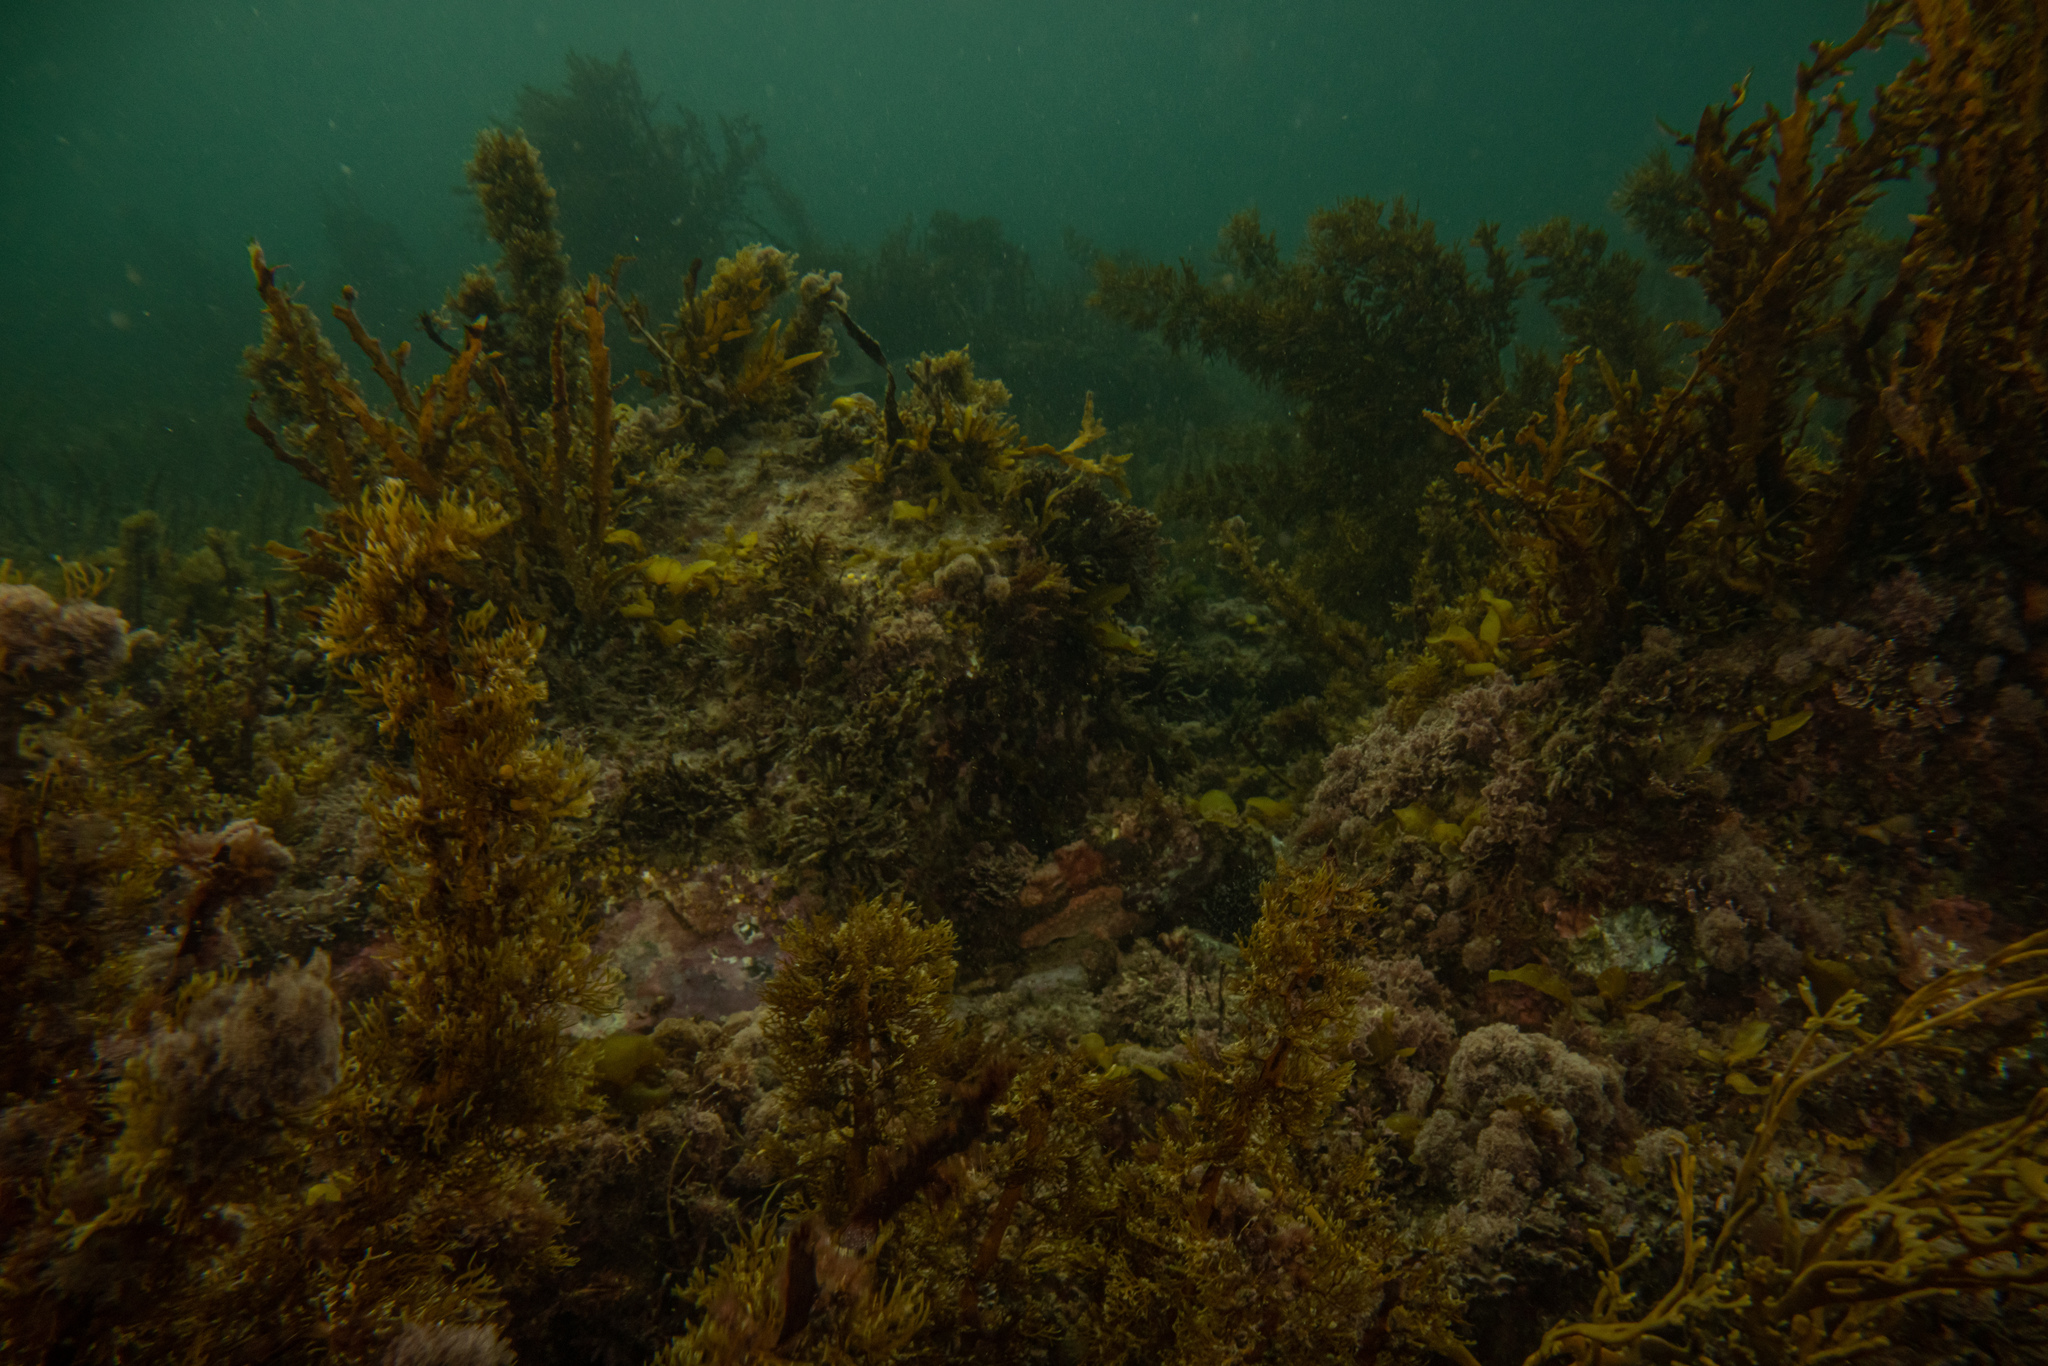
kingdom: Chromista
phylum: Ochrophyta
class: Phaeophyceae
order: Fucales
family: Sargassaceae
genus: Carpophyllum
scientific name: Carpophyllum plumosum
